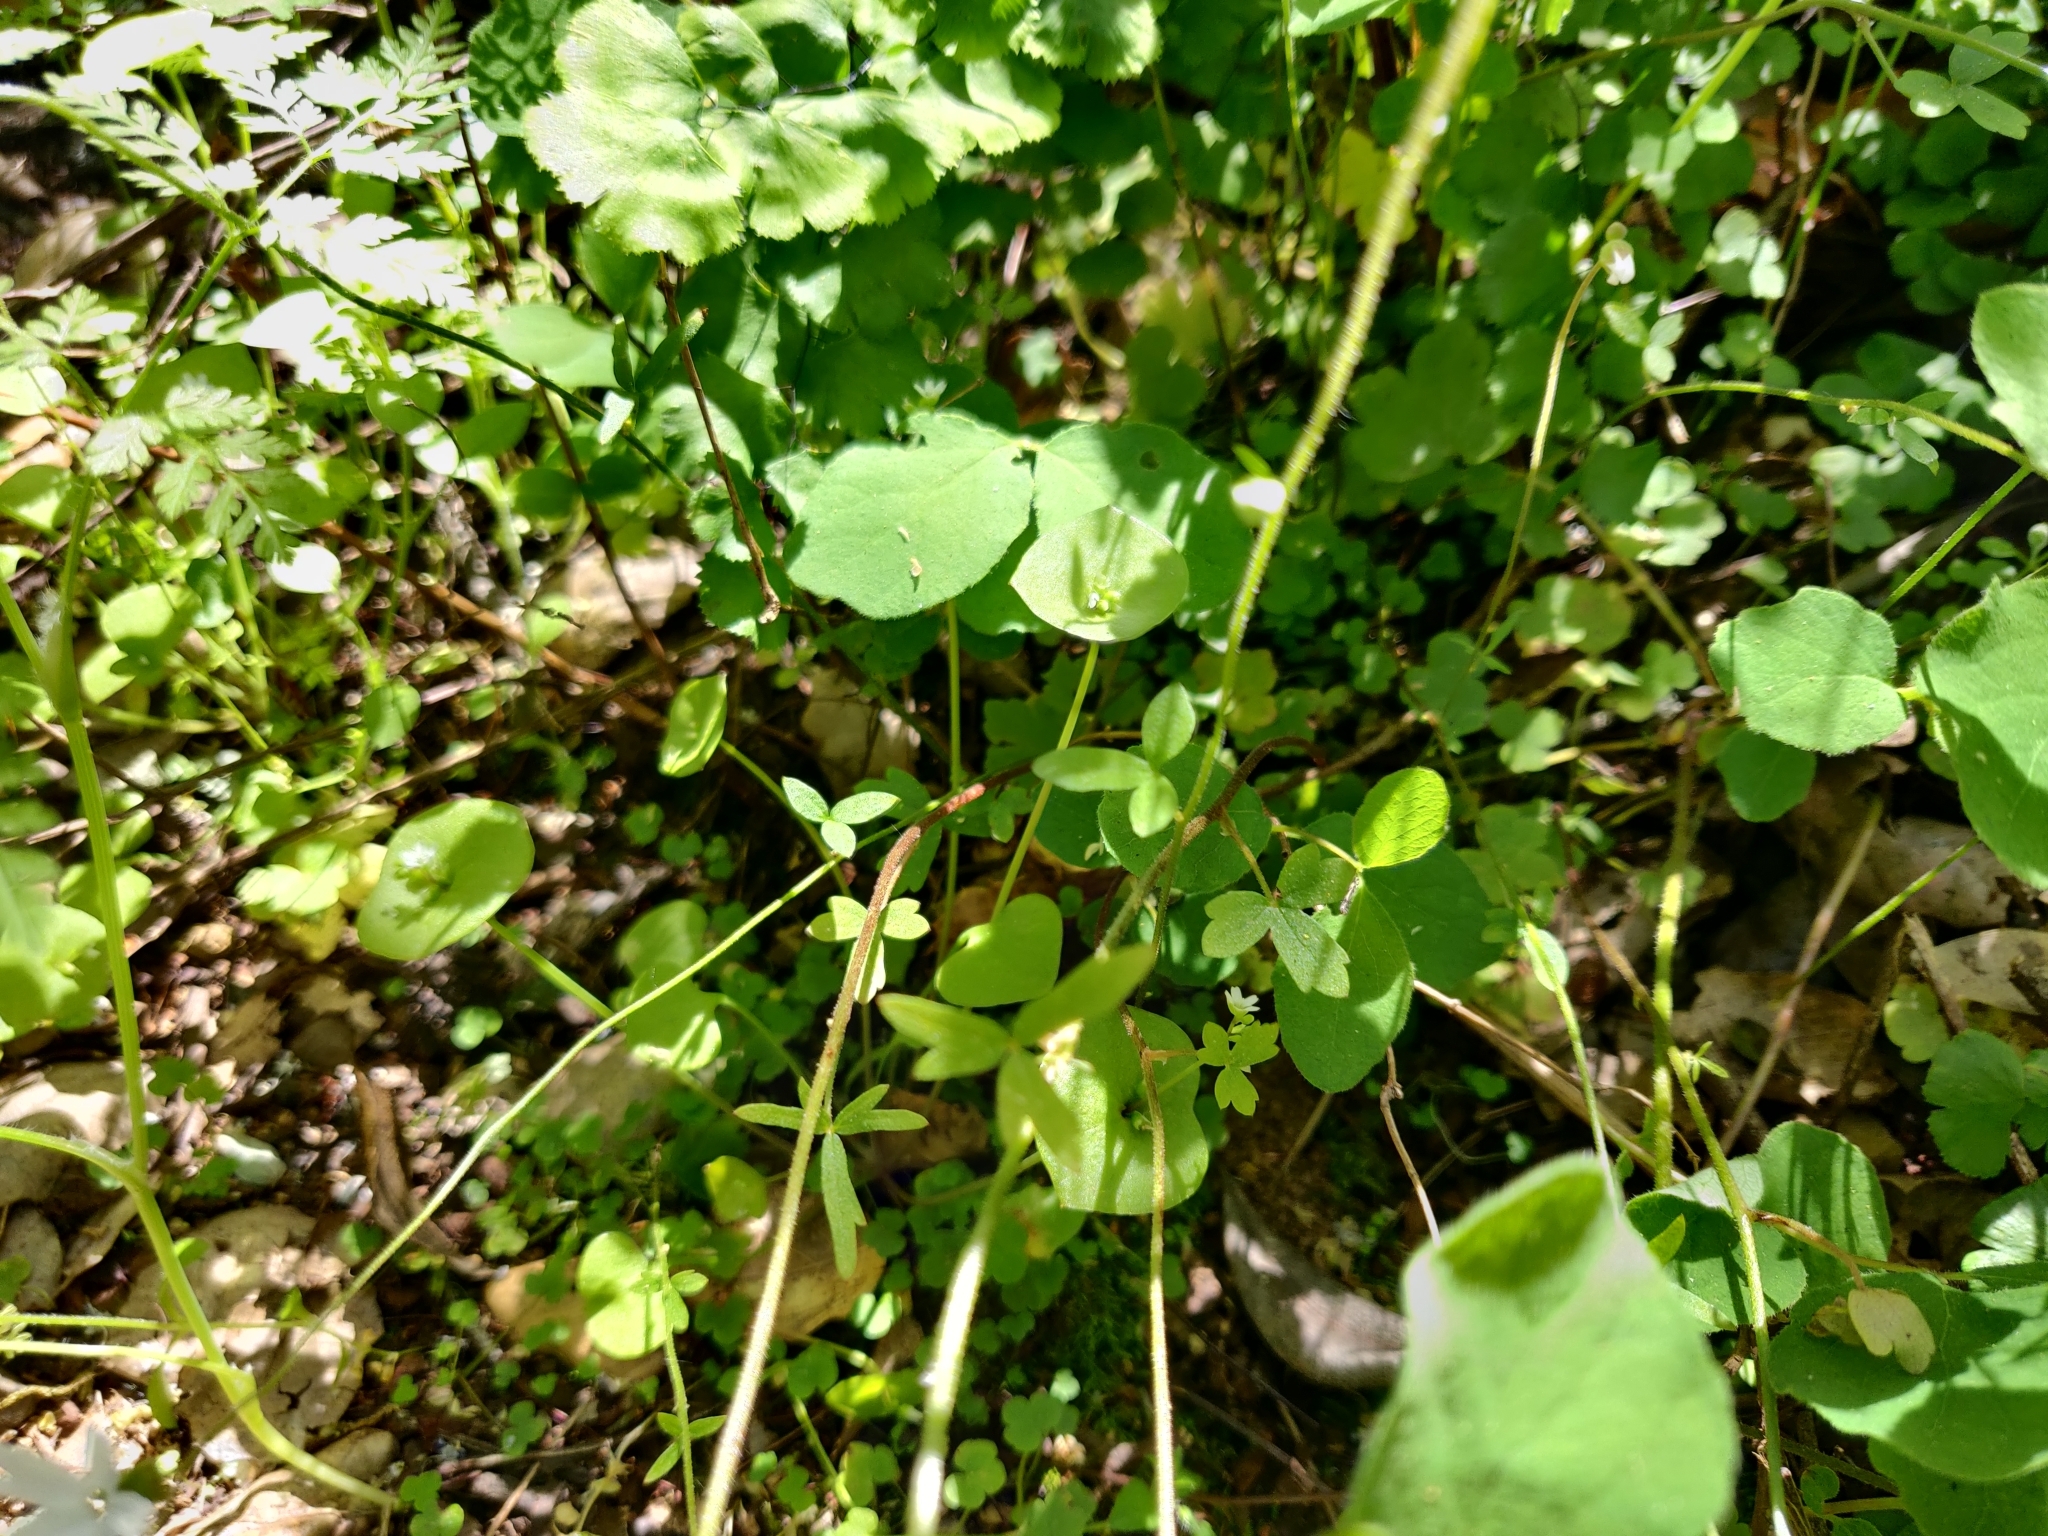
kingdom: Plantae
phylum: Tracheophyta
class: Magnoliopsida
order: Saxifragales
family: Saxifragaceae
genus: Lithophragma
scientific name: Lithophragma heterophyllum
